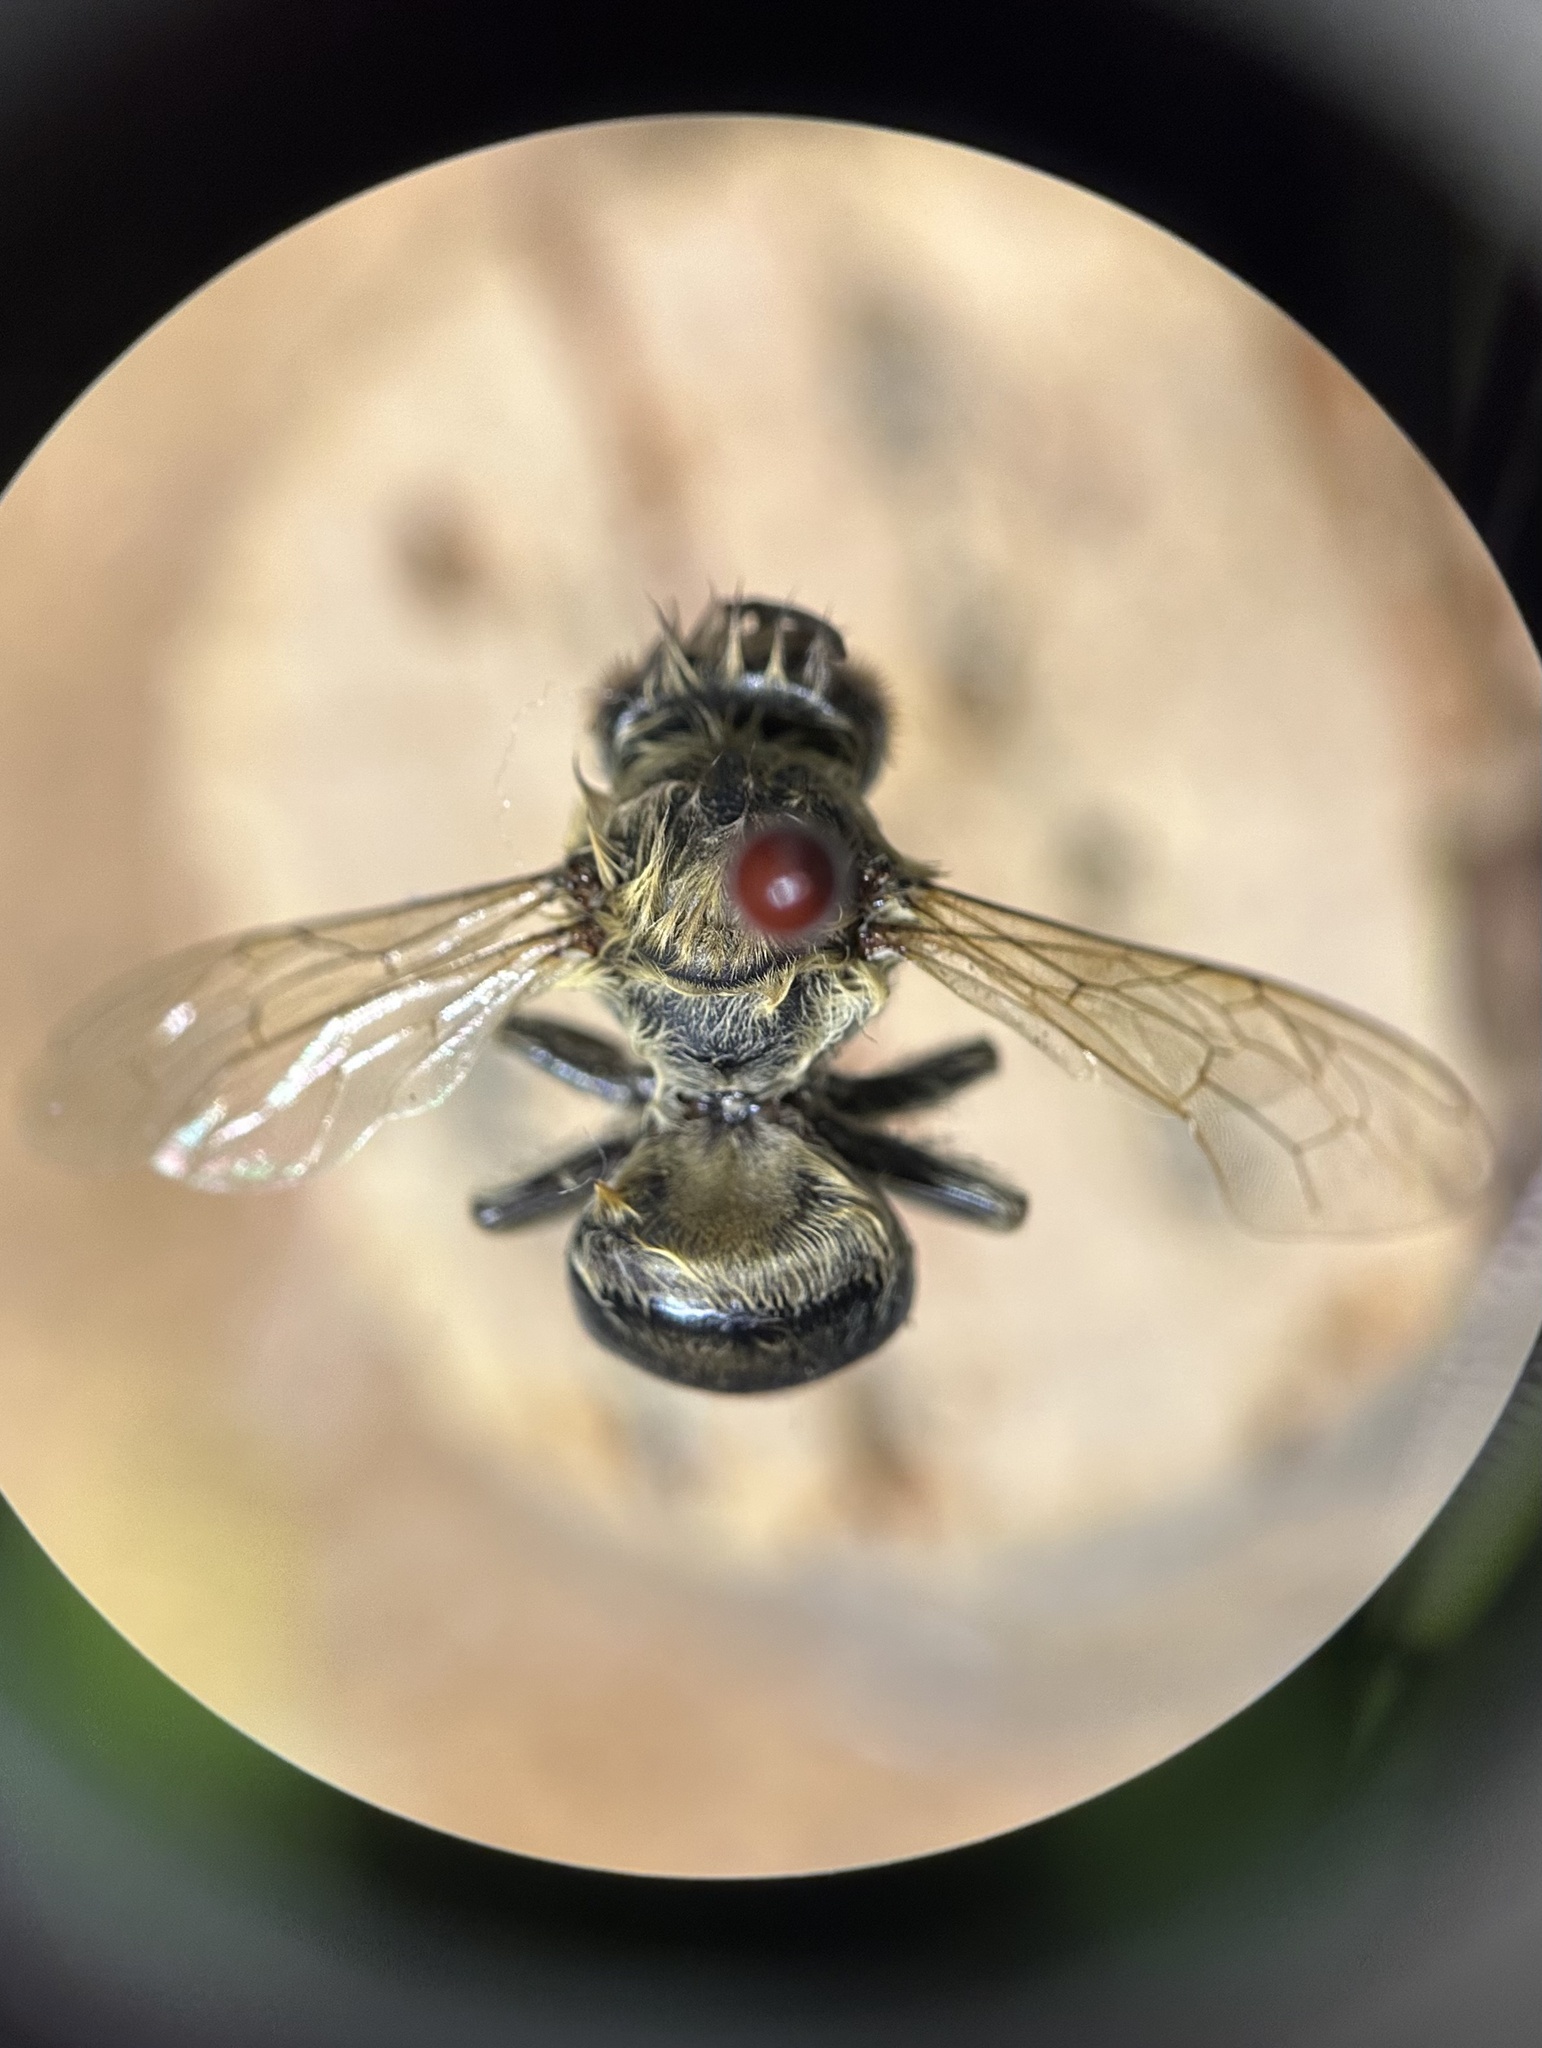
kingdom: Animalia
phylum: Arthropoda
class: Insecta
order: Hymenoptera
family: Apidae
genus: Apis
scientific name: Apis mellifera
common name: Honey bee
